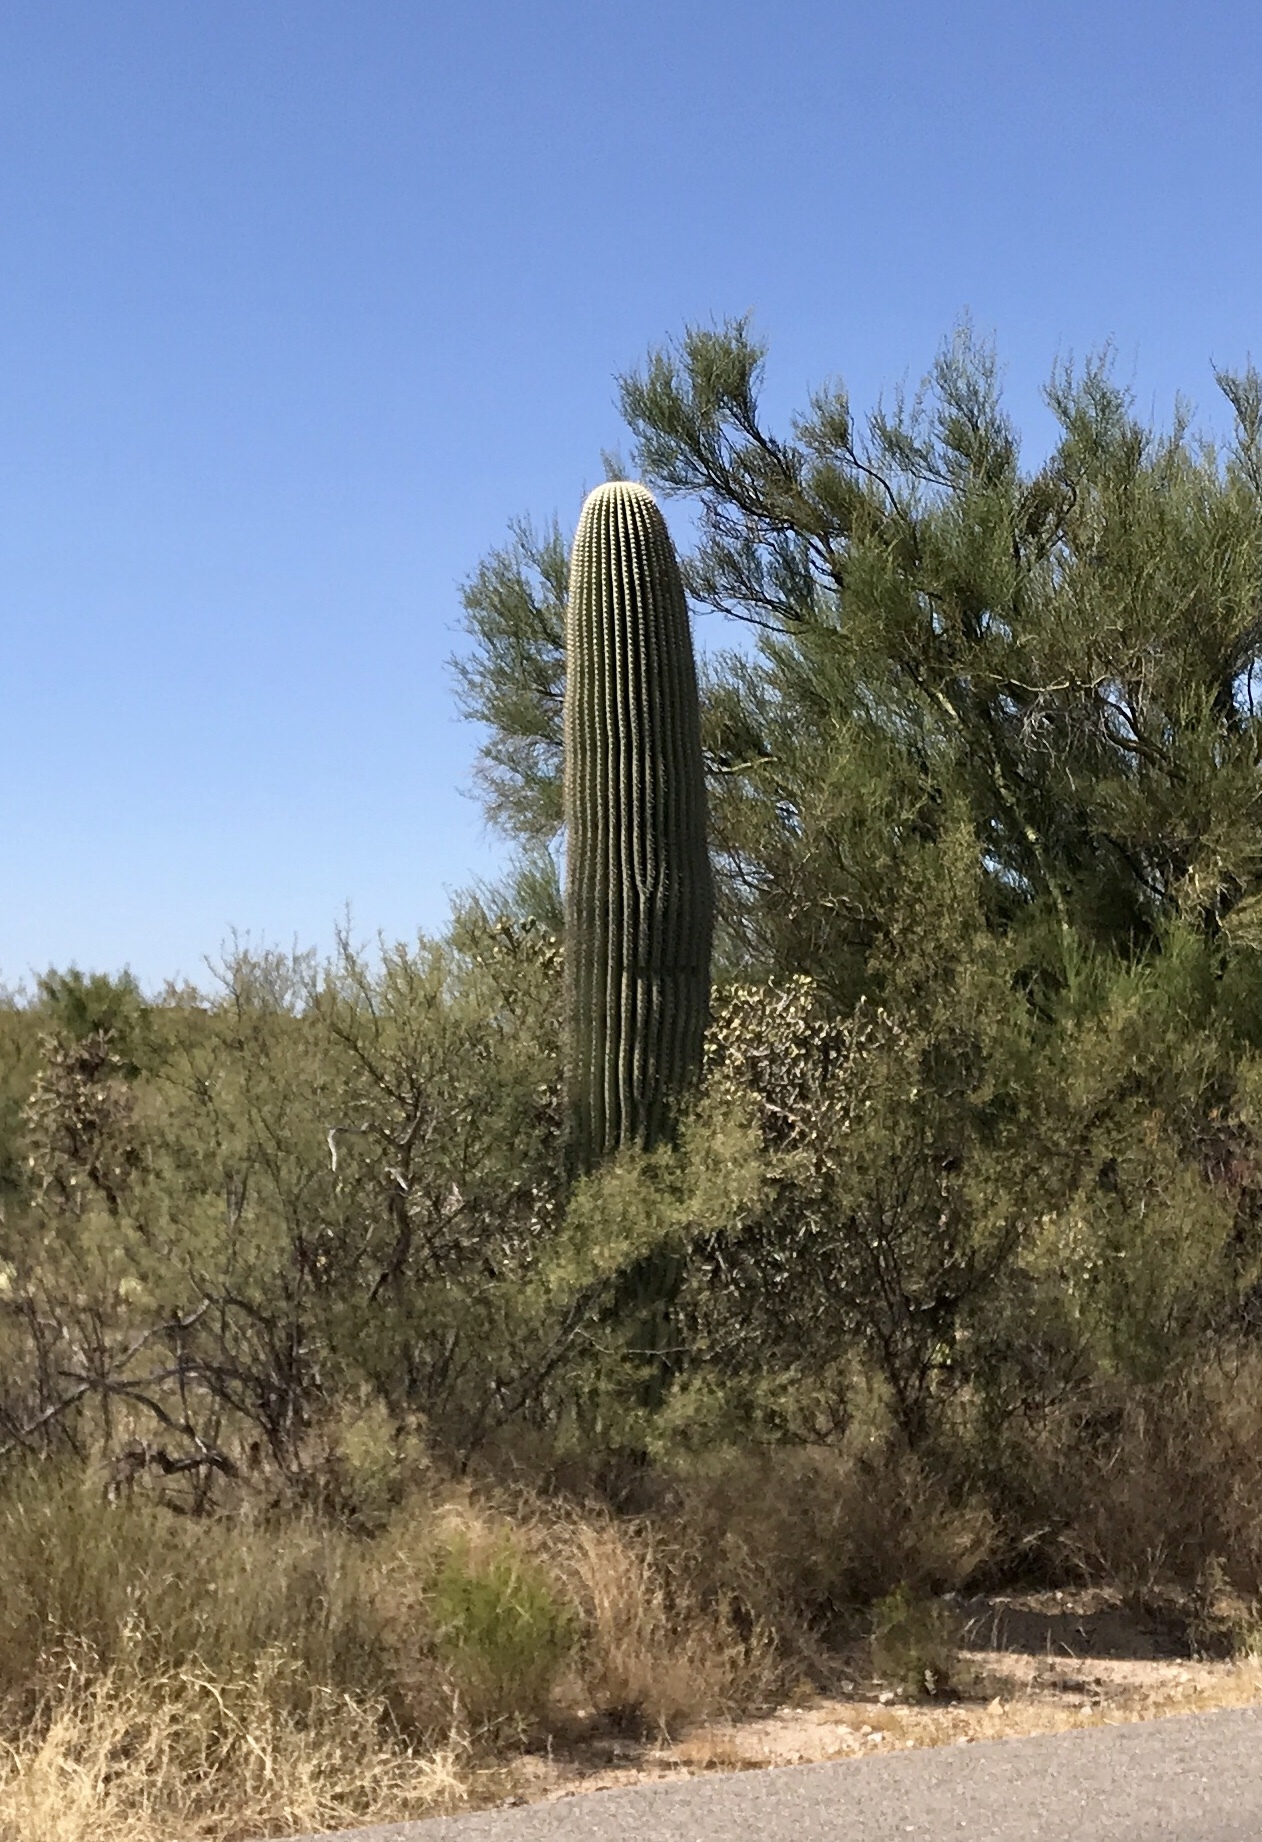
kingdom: Plantae
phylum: Tracheophyta
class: Magnoliopsida
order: Caryophyllales
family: Cactaceae
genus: Carnegiea
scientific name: Carnegiea gigantea
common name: Saguaro
